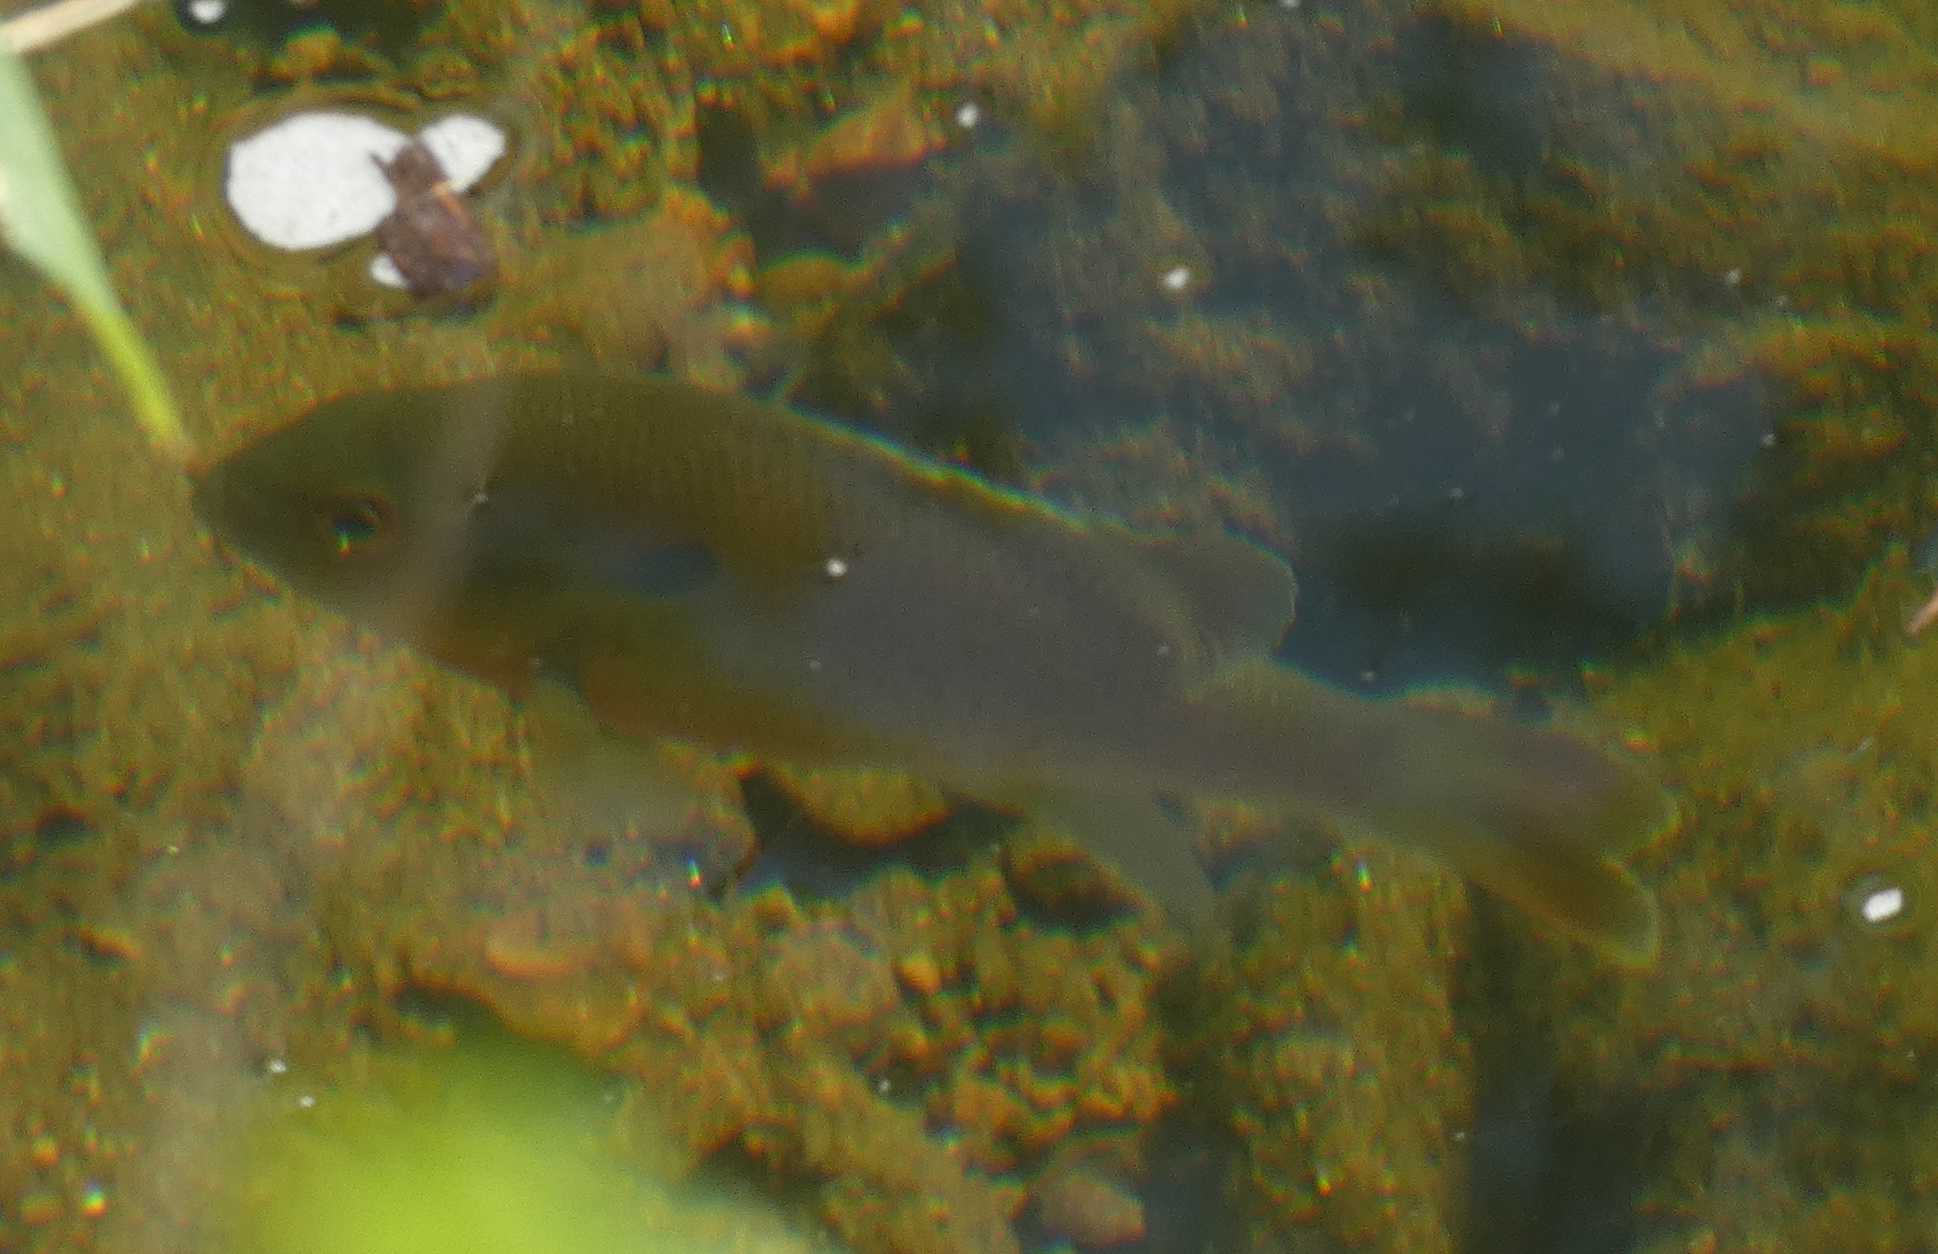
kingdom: Animalia
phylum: Chordata
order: Perciformes
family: Centrarchidae
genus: Lepomis
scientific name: Lepomis auritus
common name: Redbreast sunfish
